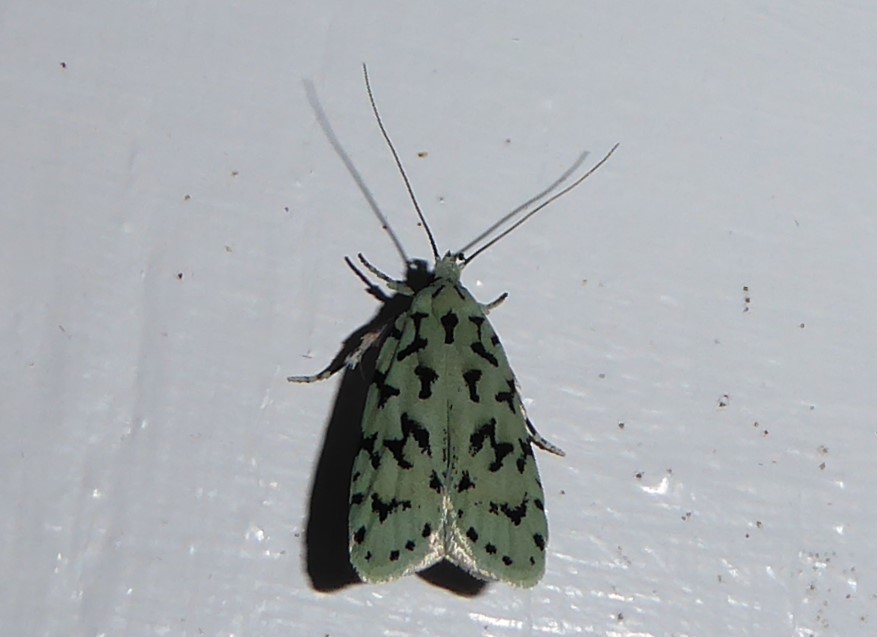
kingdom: Animalia
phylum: Arthropoda
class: Insecta
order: Lepidoptera
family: Oecophoridae
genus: Izatha
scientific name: Izatha huttoni
